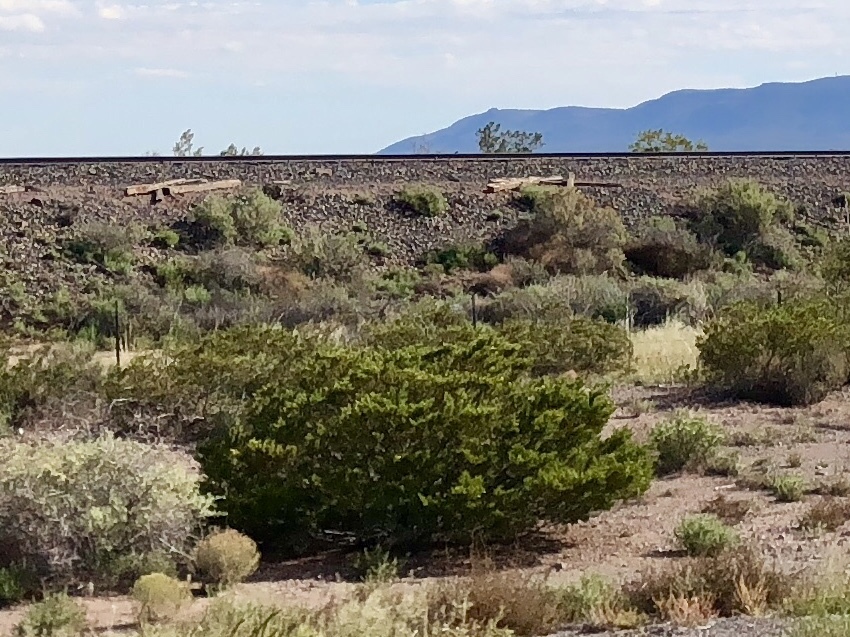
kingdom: Plantae
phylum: Tracheophyta
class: Magnoliopsida
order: Zygophyllales
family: Zygophyllaceae
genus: Larrea
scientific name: Larrea tridentata
